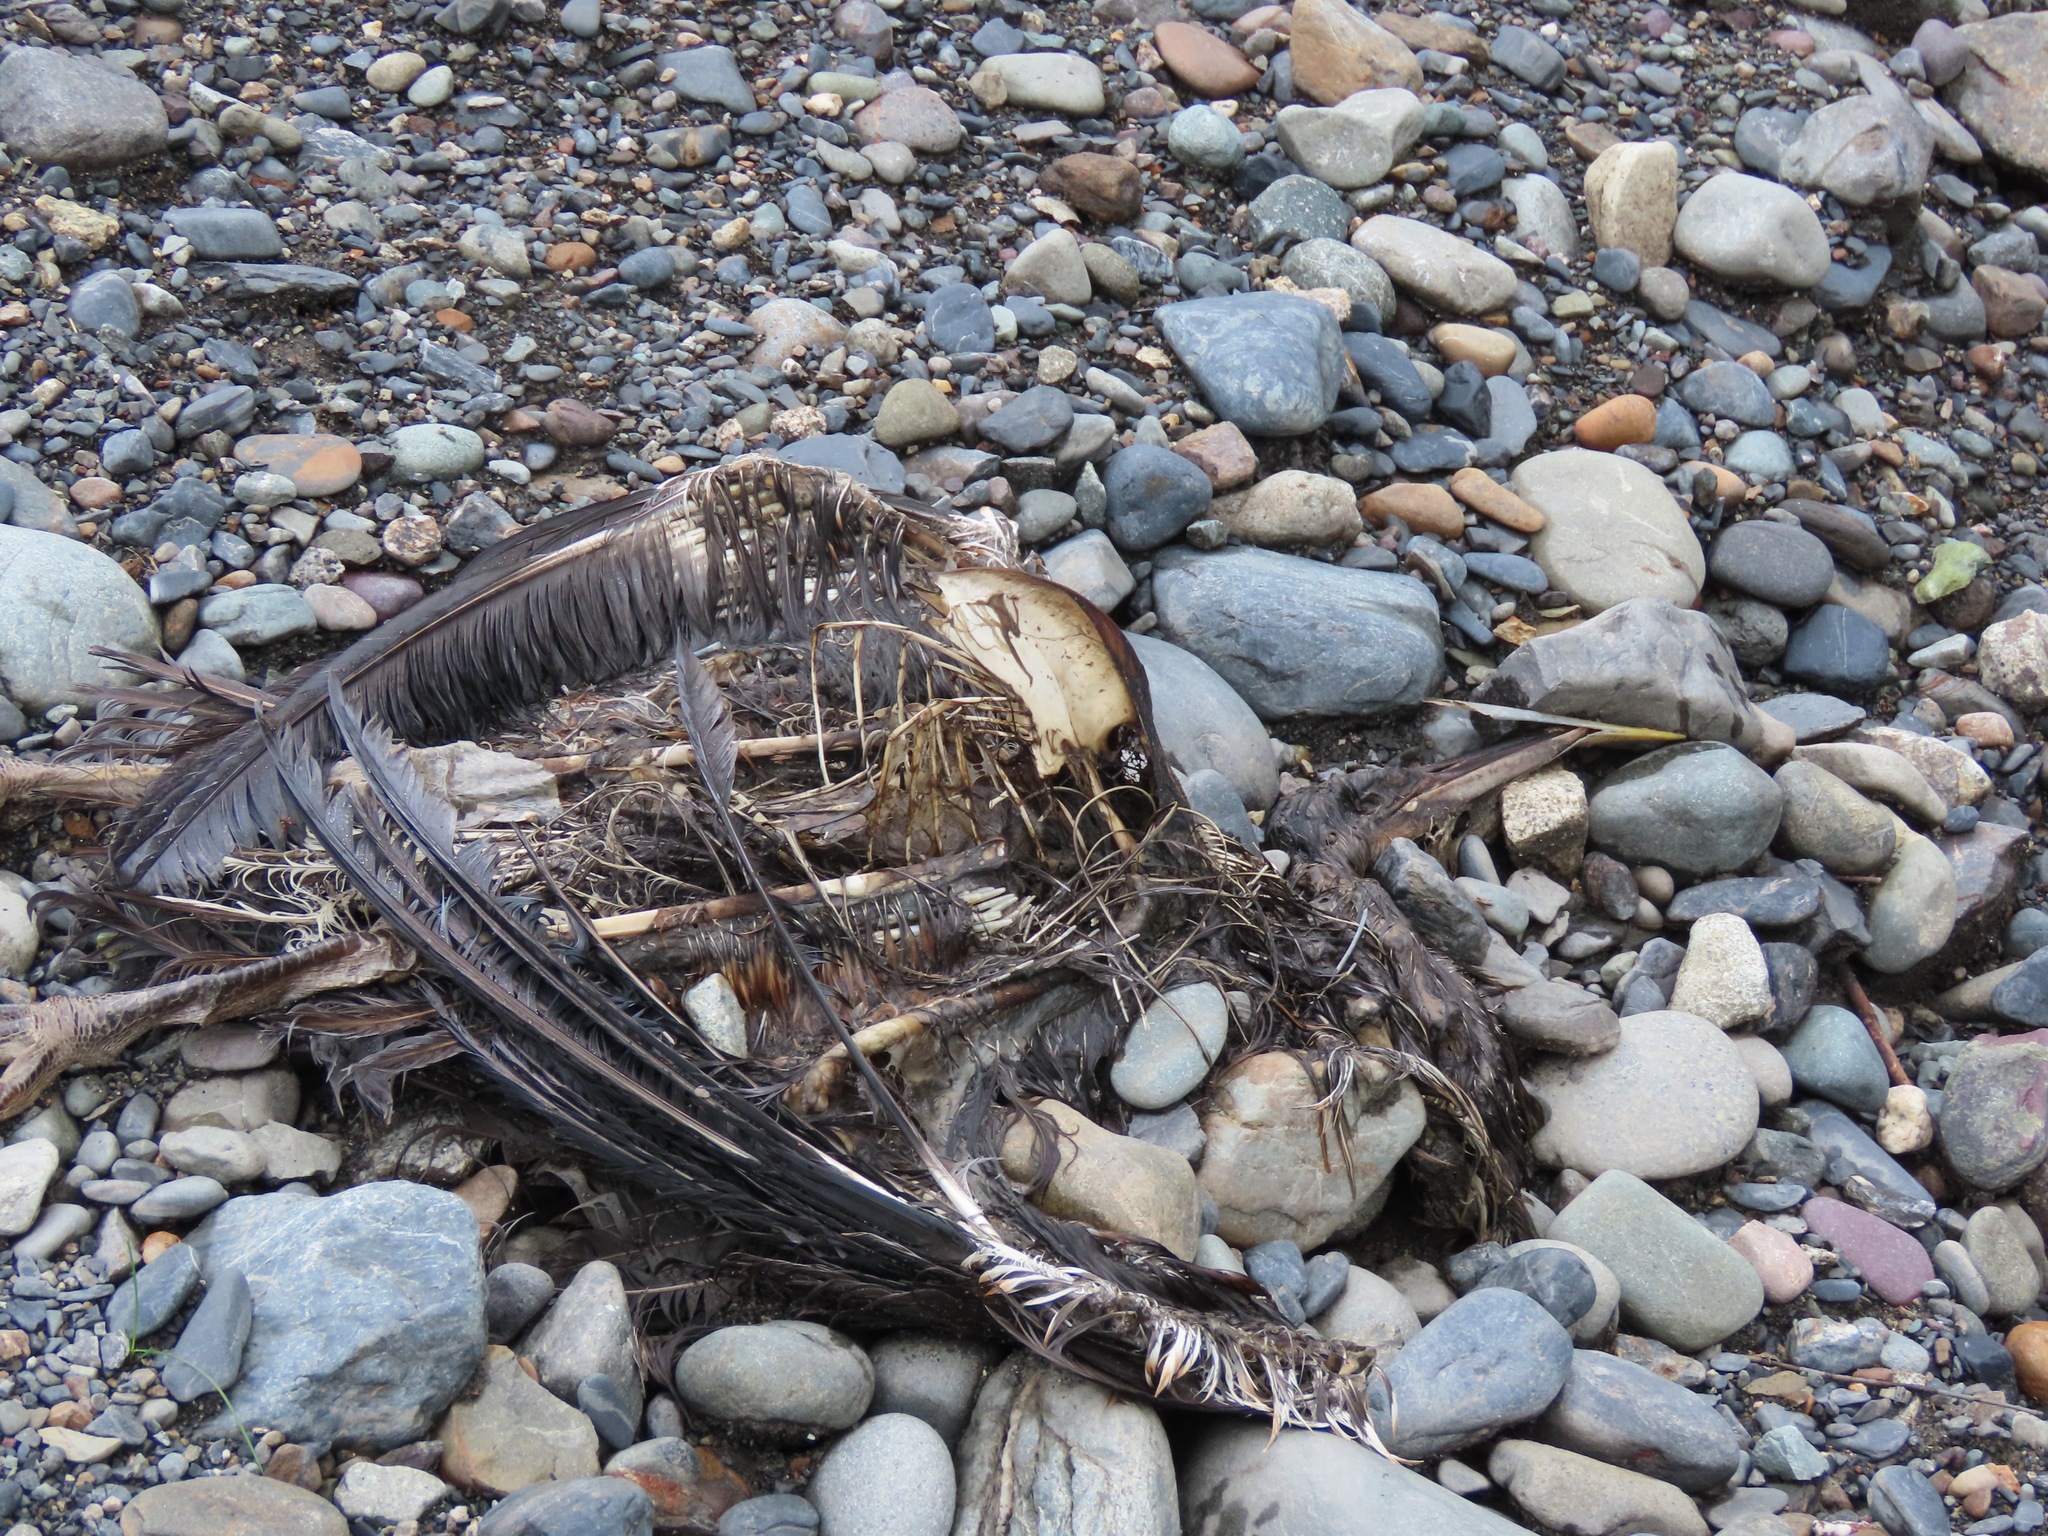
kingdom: Animalia
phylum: Chordata
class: Aves
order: Pelecaniformes
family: Ardeidae
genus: Ardea
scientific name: Ardea herodias
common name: Great blue heron
